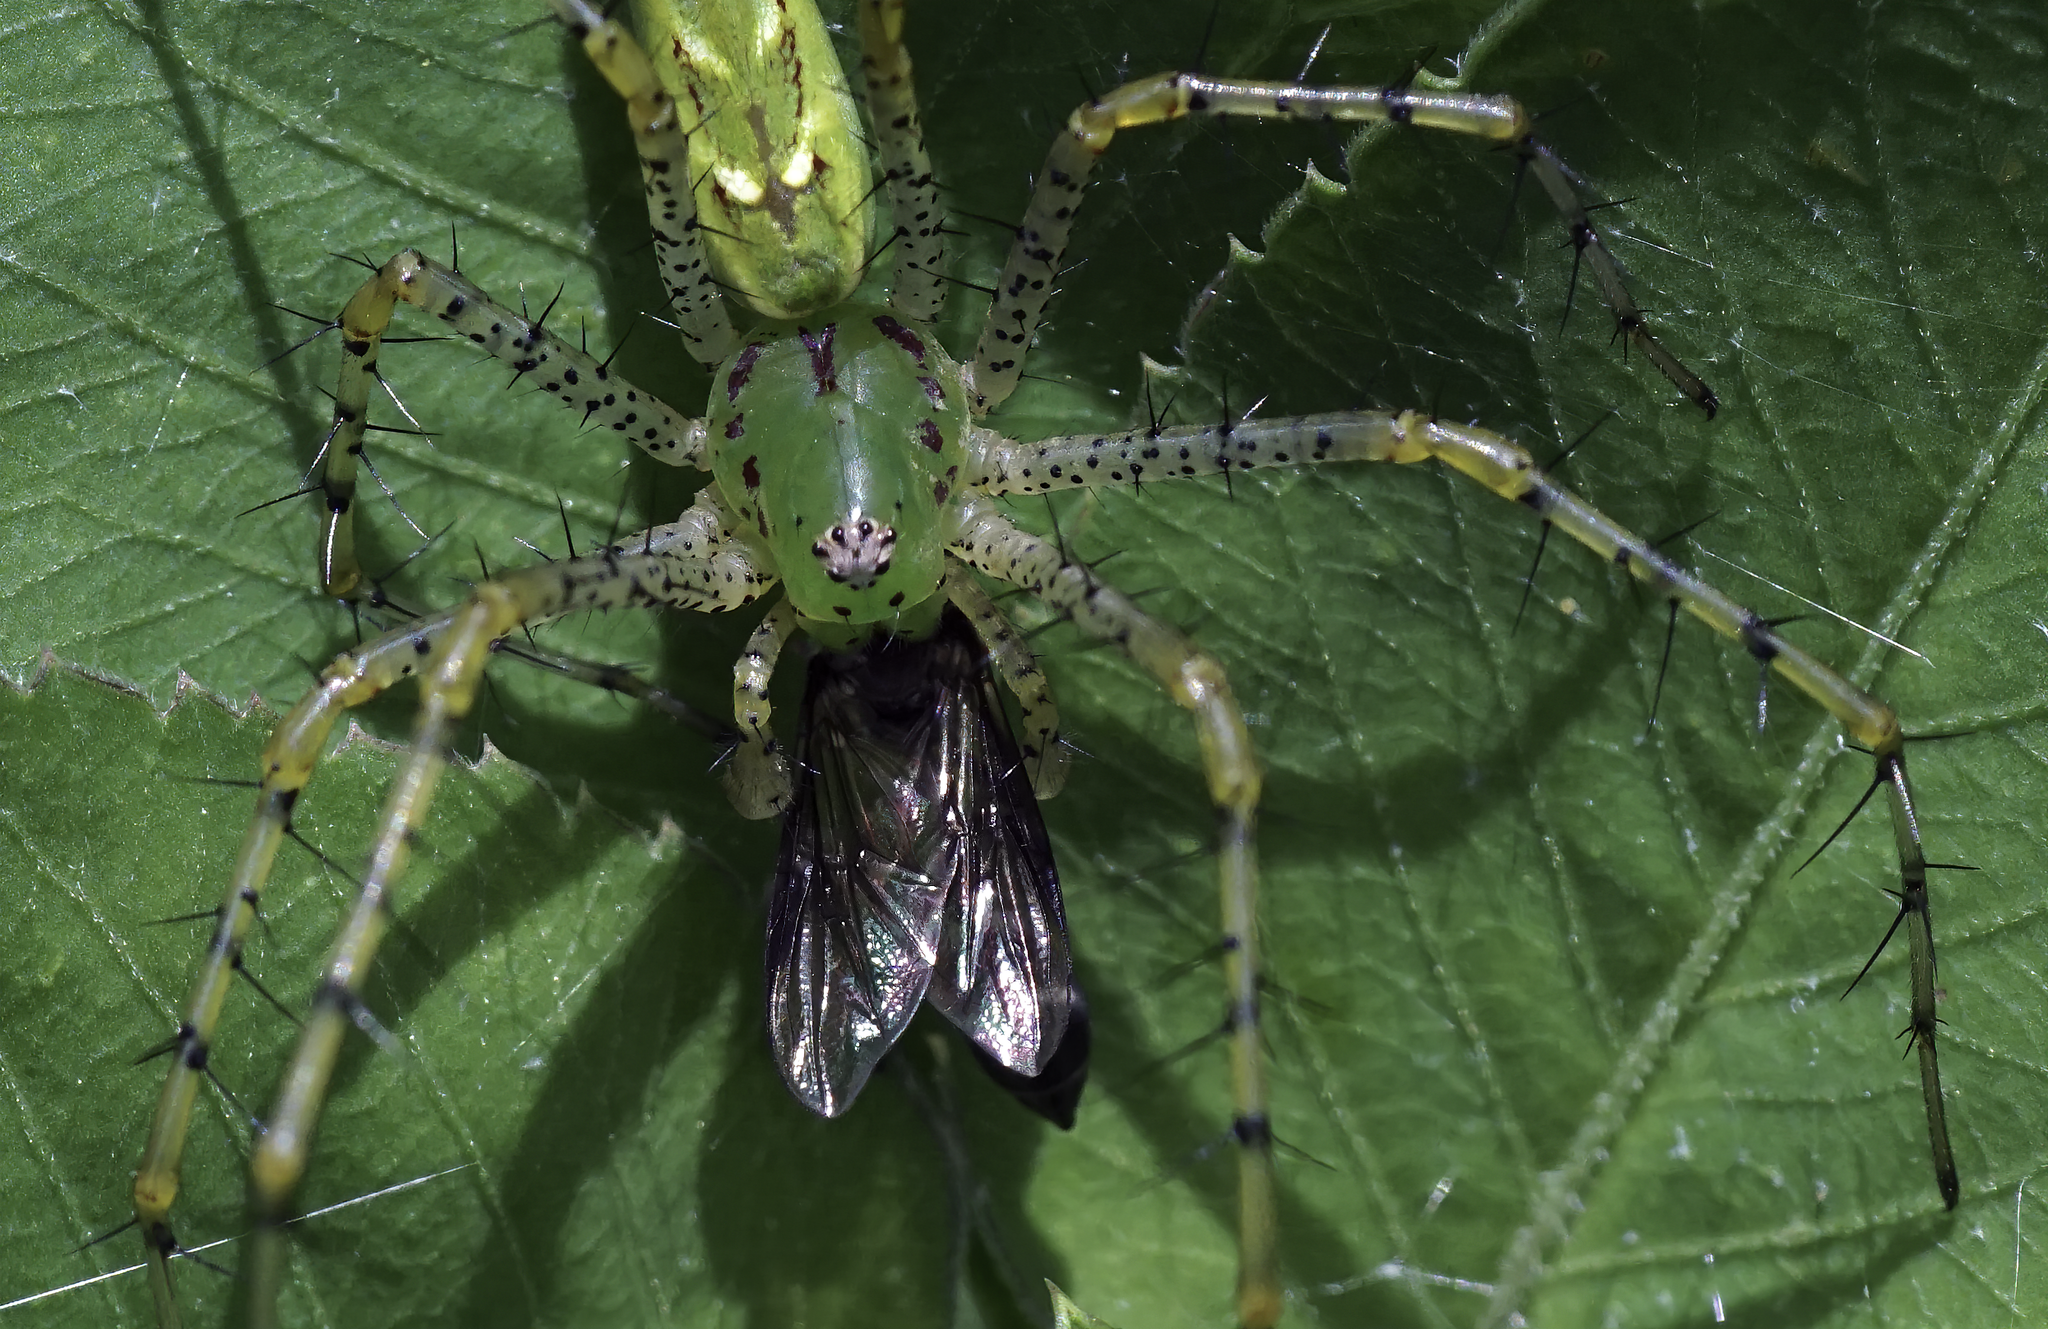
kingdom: Animalia
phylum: Arthropoda
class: Arachnida
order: Araneae
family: Oxyopidae
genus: Peucetia
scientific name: Peucetia viridans
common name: Lynx spiders
